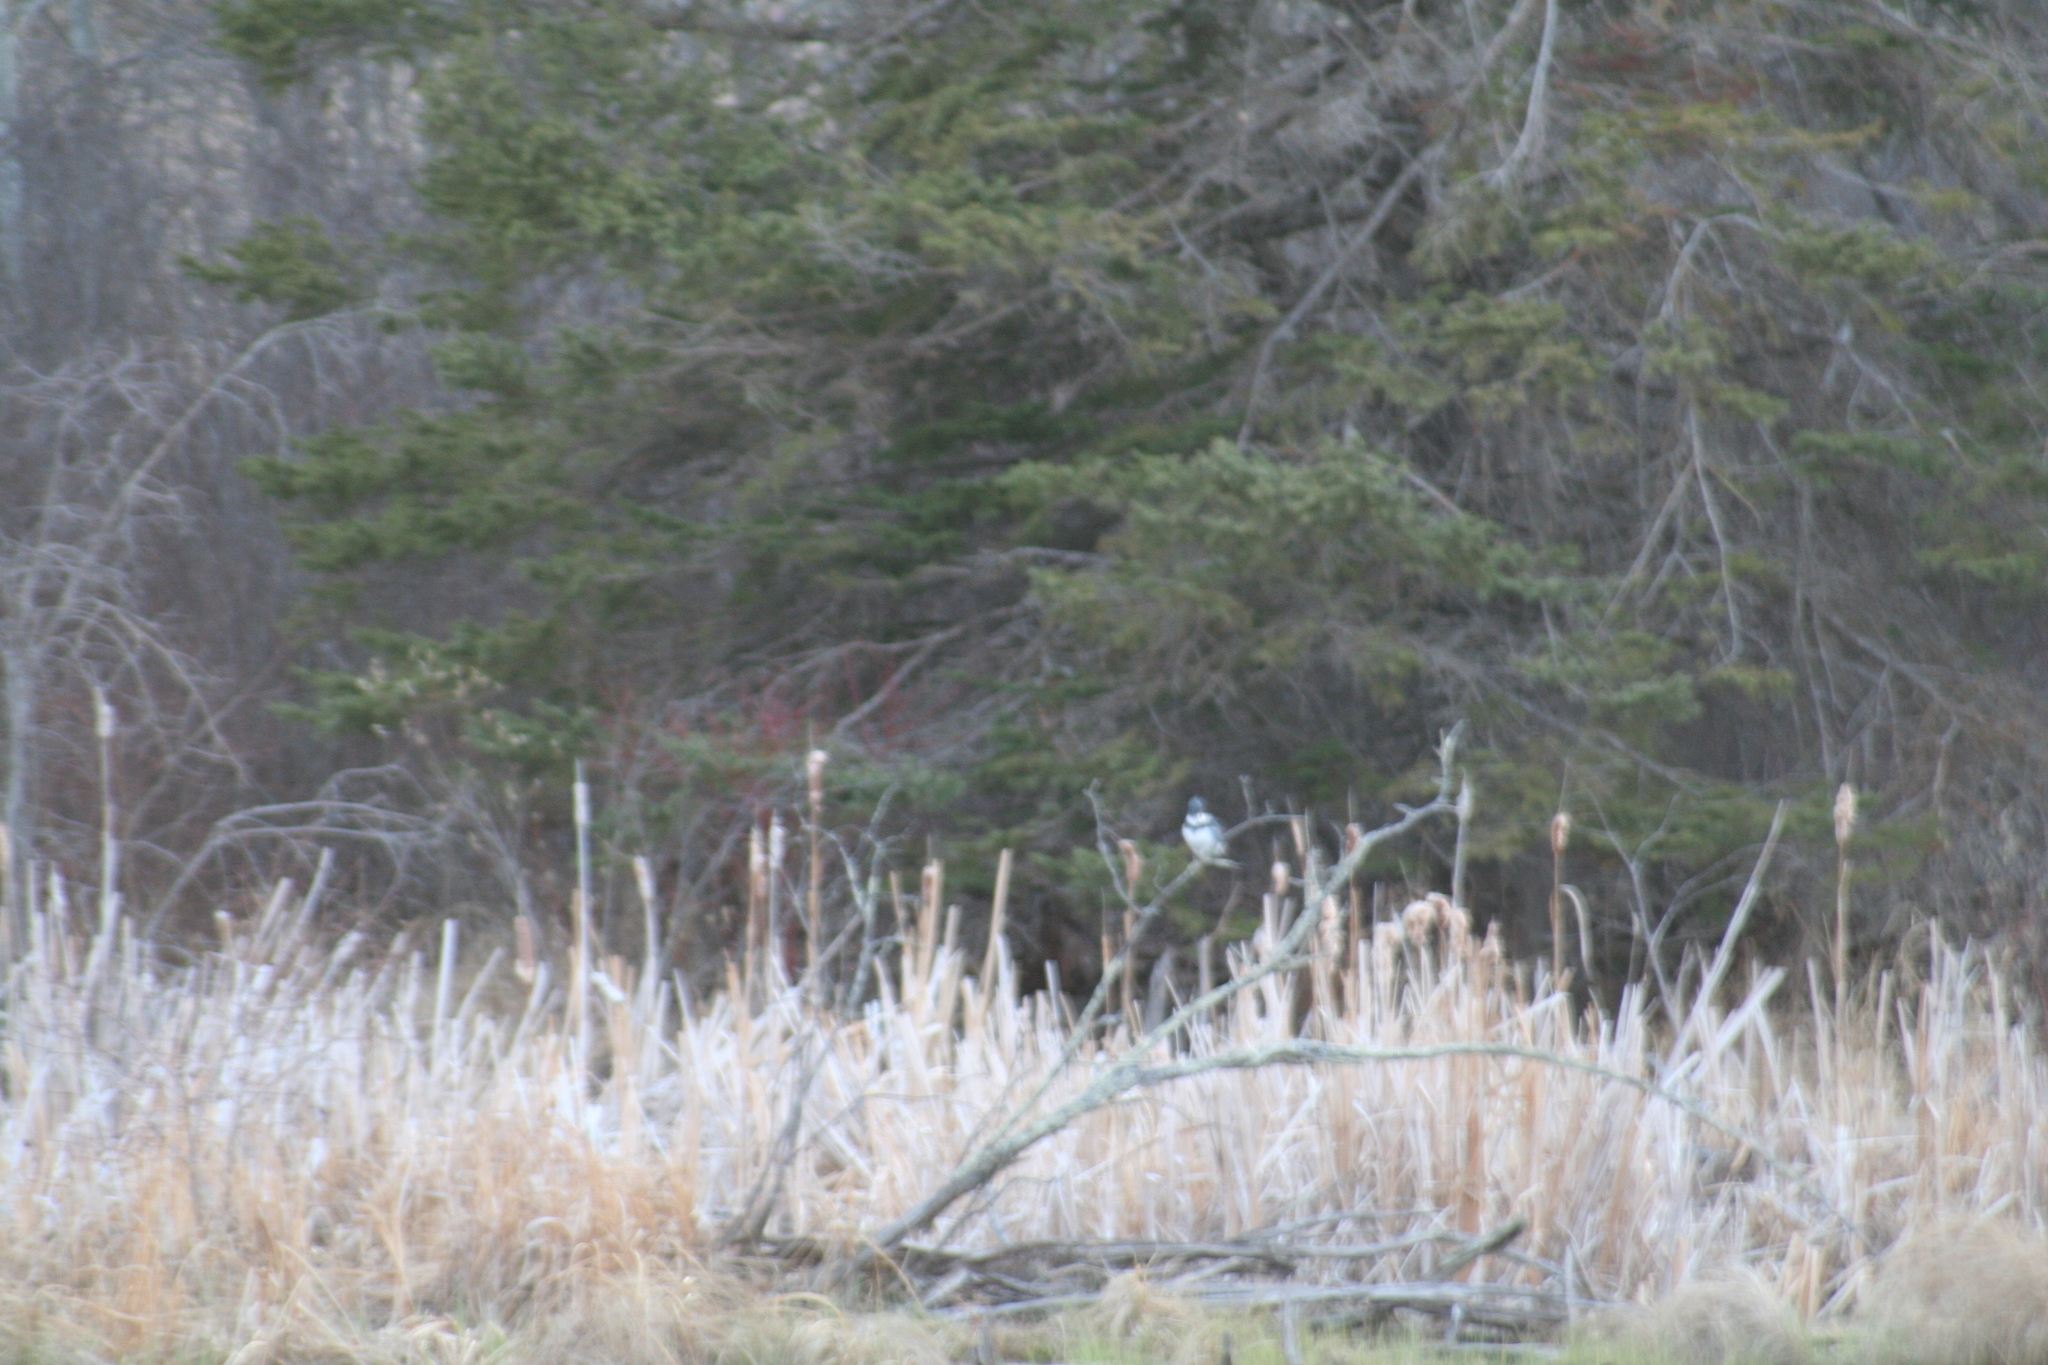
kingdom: Animalia
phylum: Chordata
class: Aves
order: Coraciiformes
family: Alcedinidae
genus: Megaceryle
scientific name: Megaceryle alcyon
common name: Belted kingfisher
